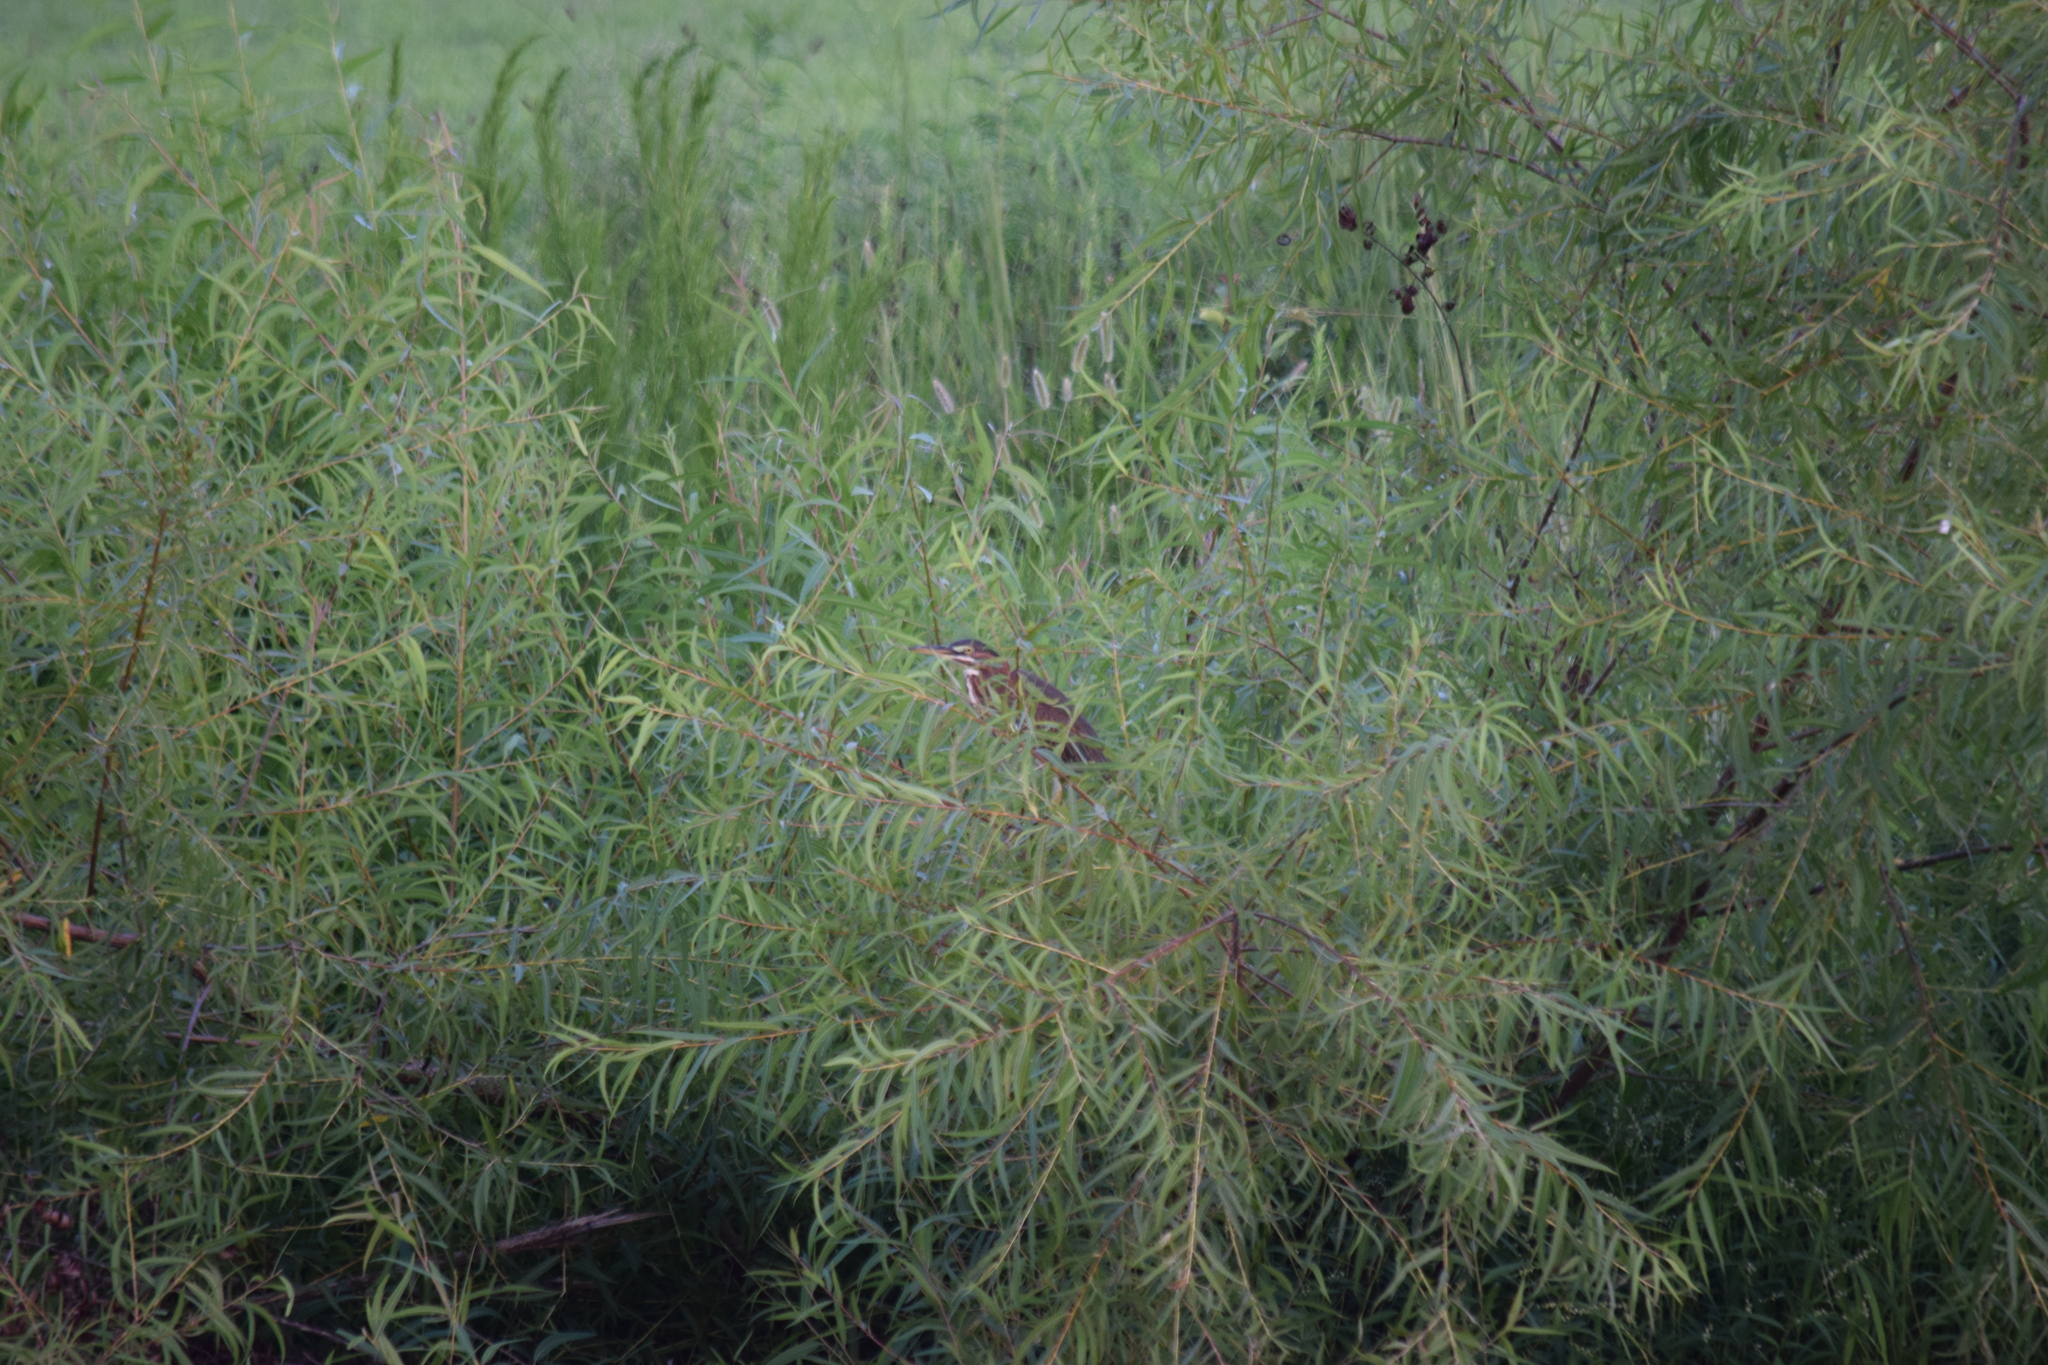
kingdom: Animalia
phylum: Chordata
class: Aves
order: Pelecaniformes
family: Ardeidae
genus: Butorides
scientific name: Butorides virescens
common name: Green heron
